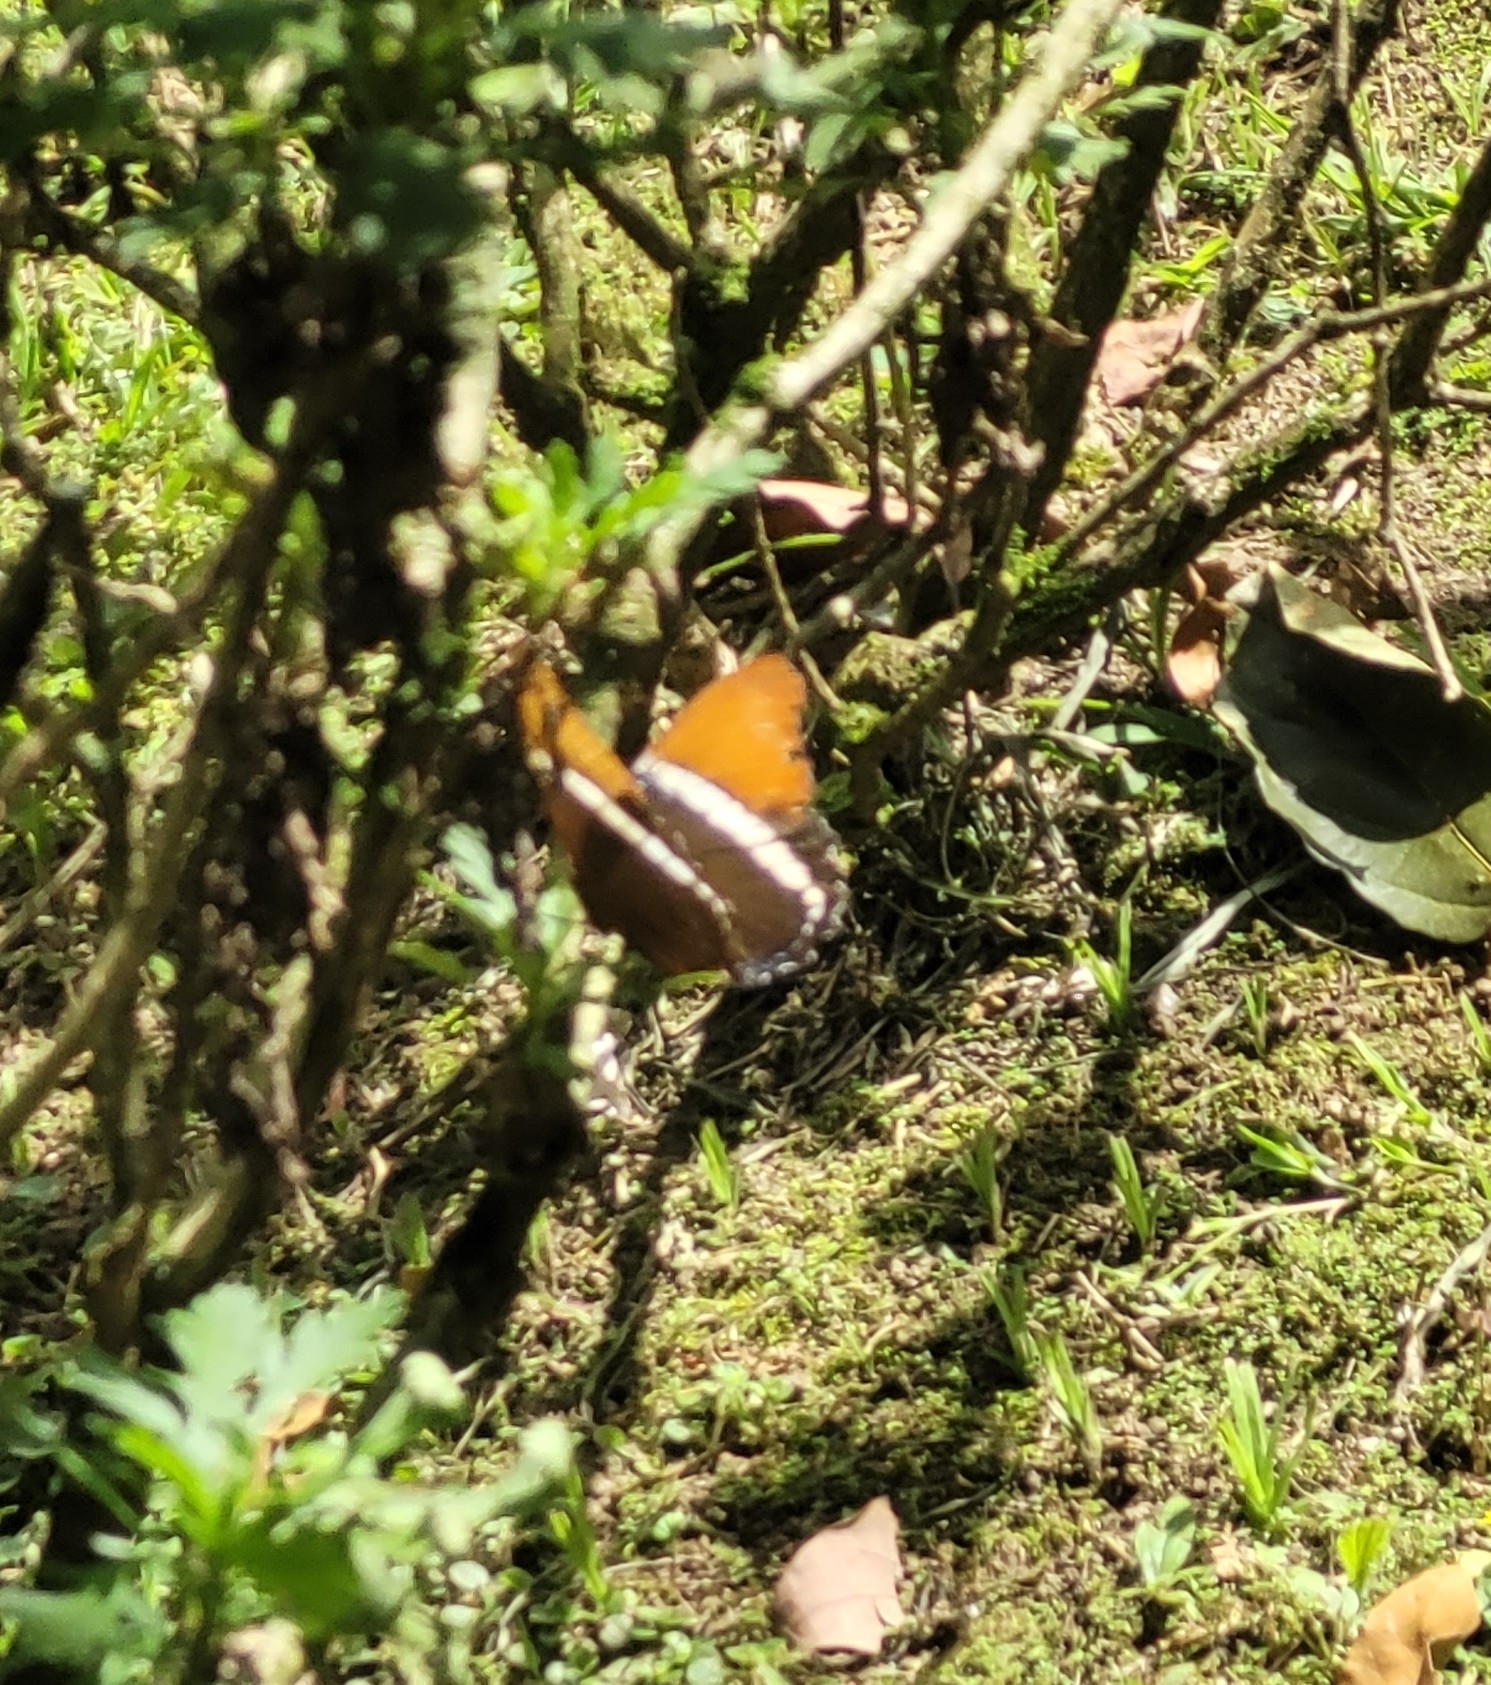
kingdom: Animalia
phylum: Arthropoda
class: Insecta
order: Lepidoptera
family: Nymphalidae
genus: Siproeta
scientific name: Siproeta epaphus
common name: Rusty-tipped page
